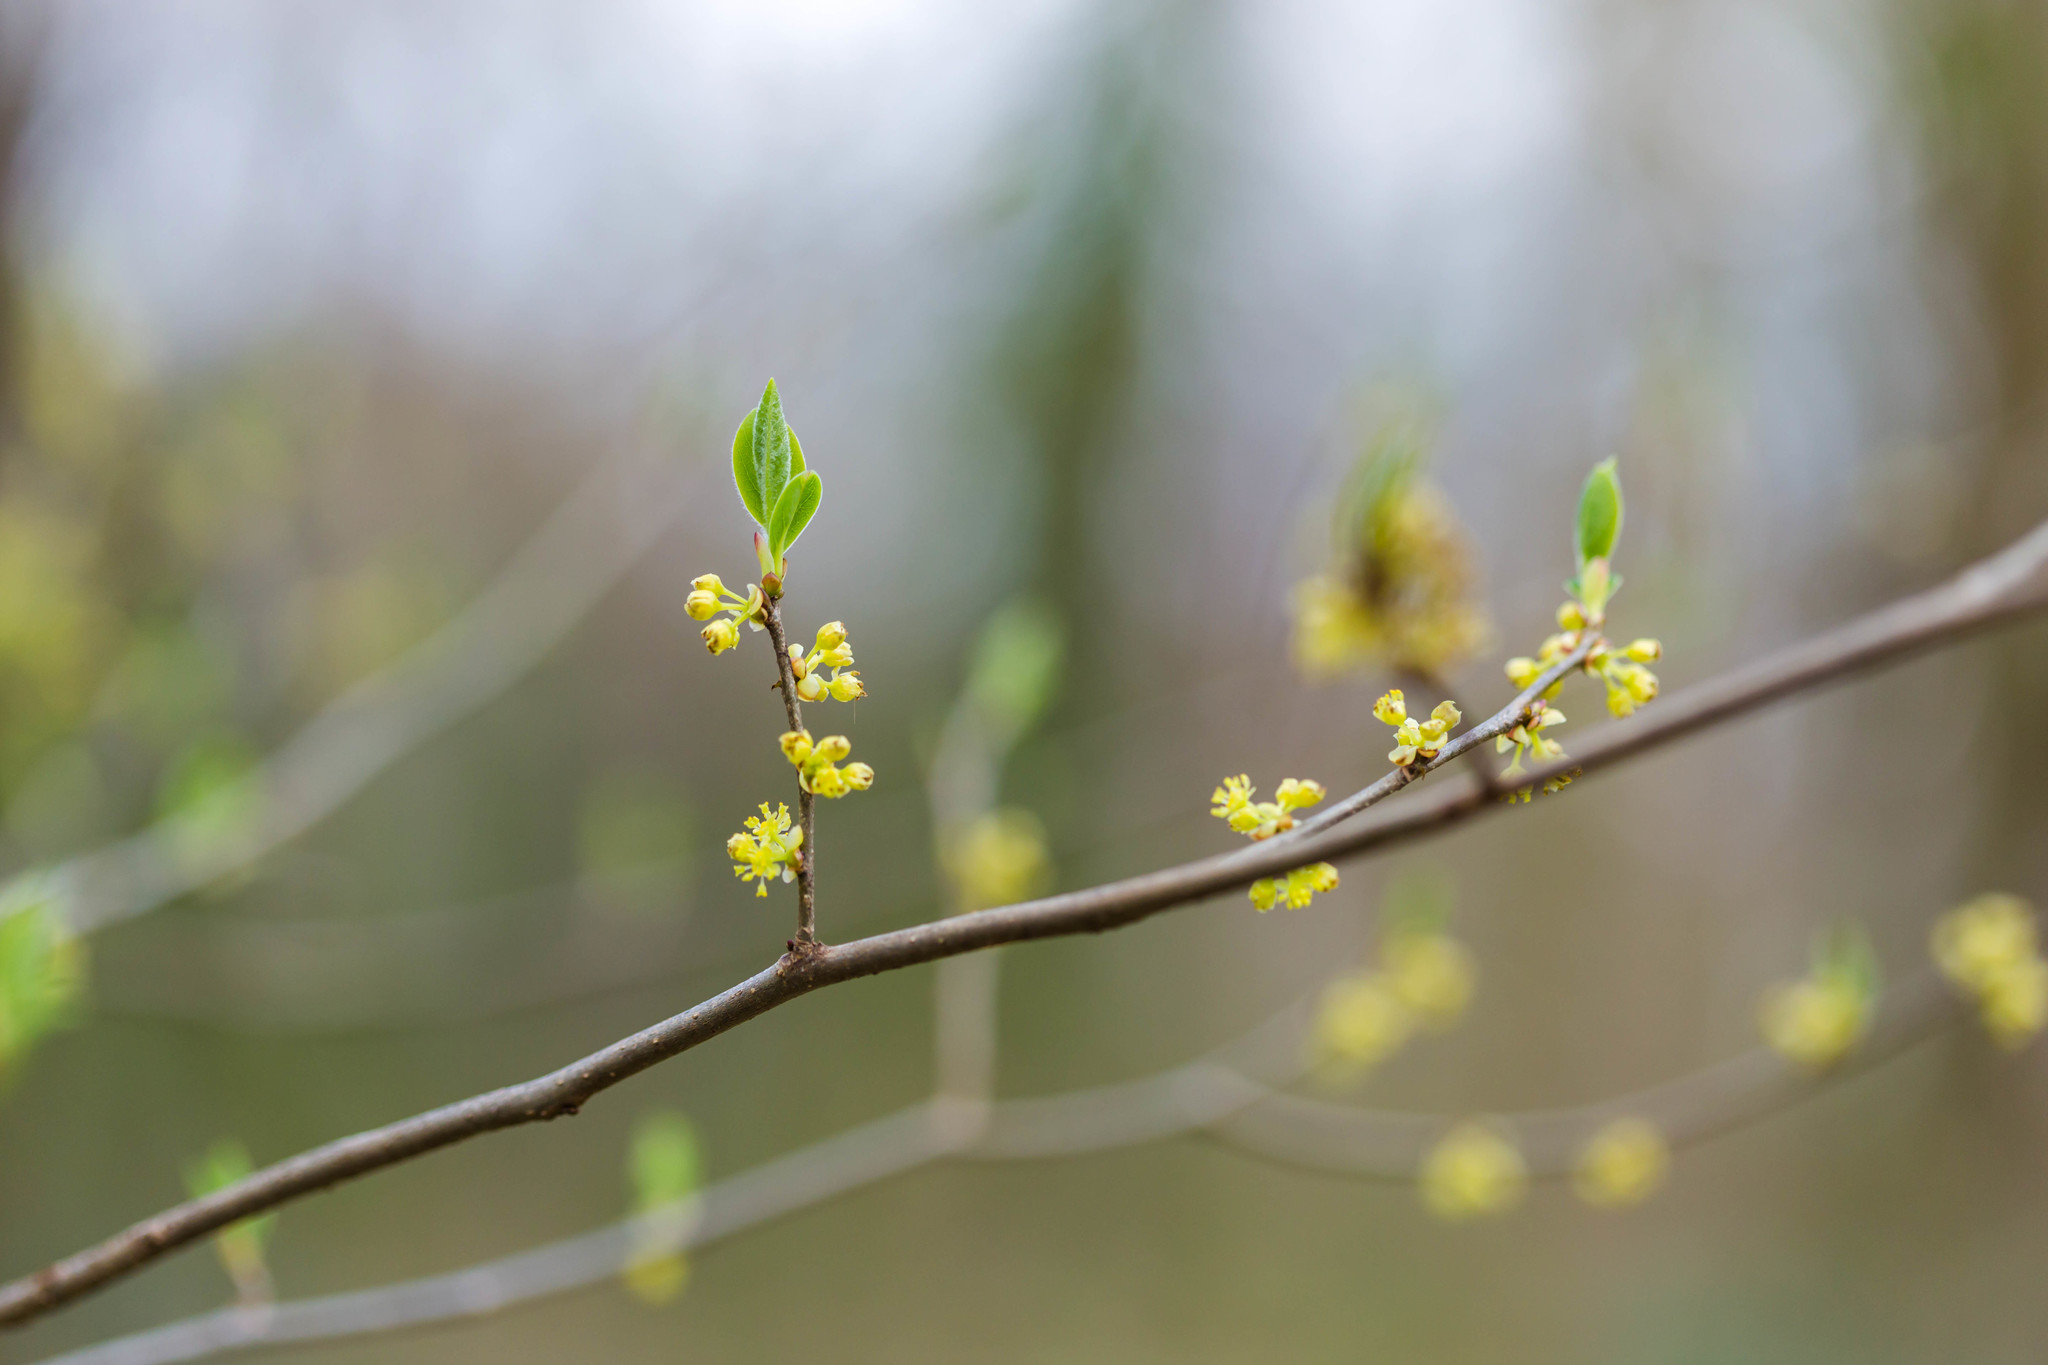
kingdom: Plantae
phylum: Tracheophyta
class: Magnoliopsida
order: Laurales
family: Lauraceae
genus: Lindera
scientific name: Lindera benzoin
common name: Spicebush
